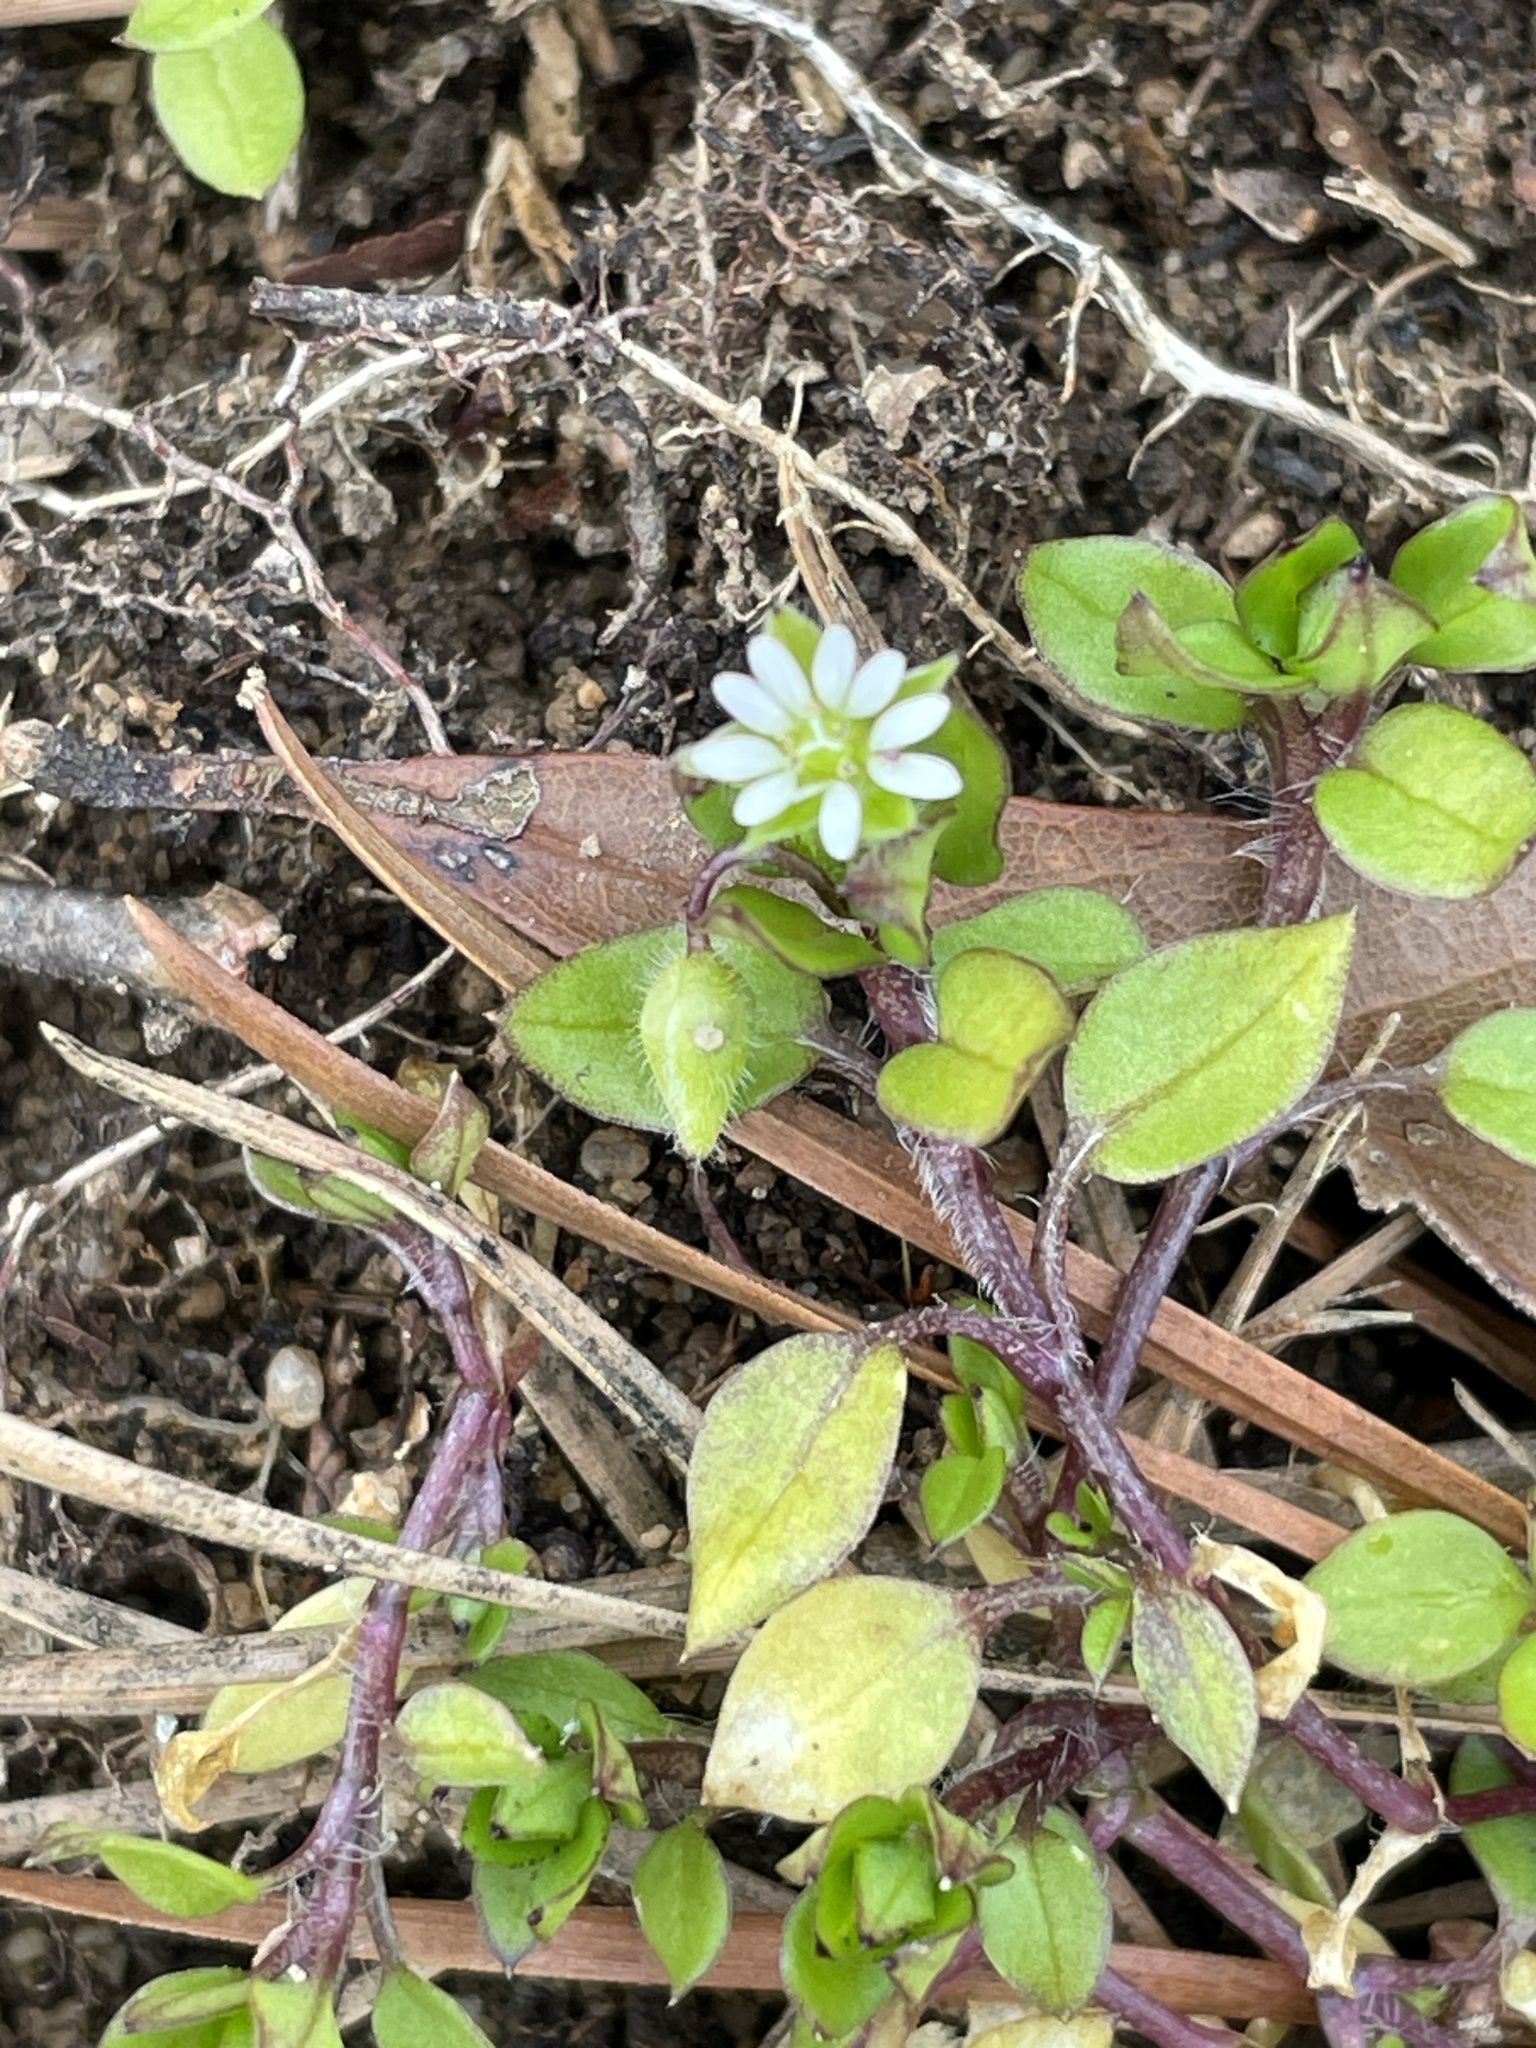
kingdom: Plantae
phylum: Tracheophyta
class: Magnoliopsida
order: Caryophyllales
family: Caryophyllaceae
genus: Stellaria
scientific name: Stellaria media
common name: Common chickweed
